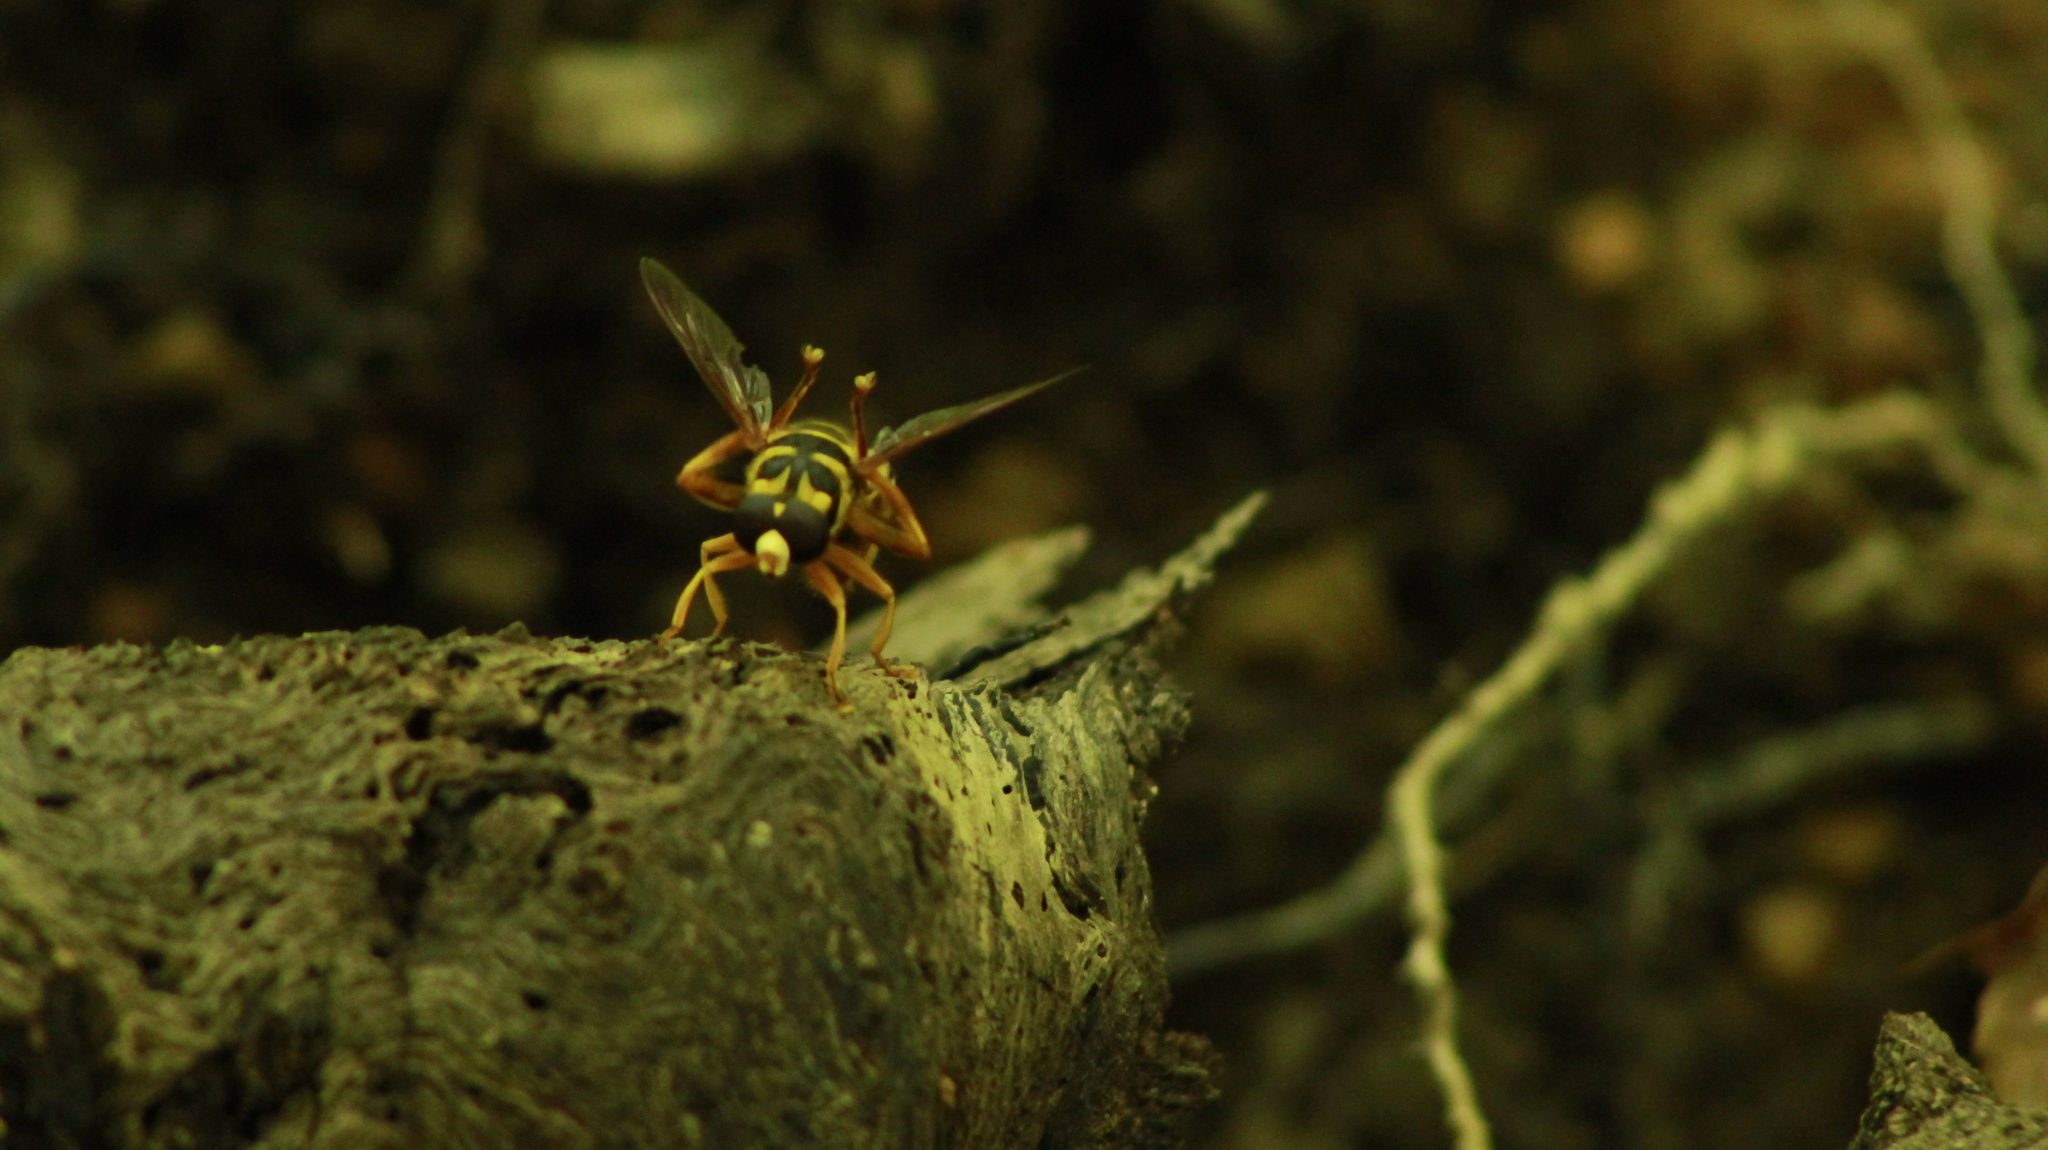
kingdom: Animalia
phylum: Arthropoda
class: Insecta
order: Diptera
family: Syrphidae
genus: Milesia
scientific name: Milesia virginiensis
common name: Virginia giant
